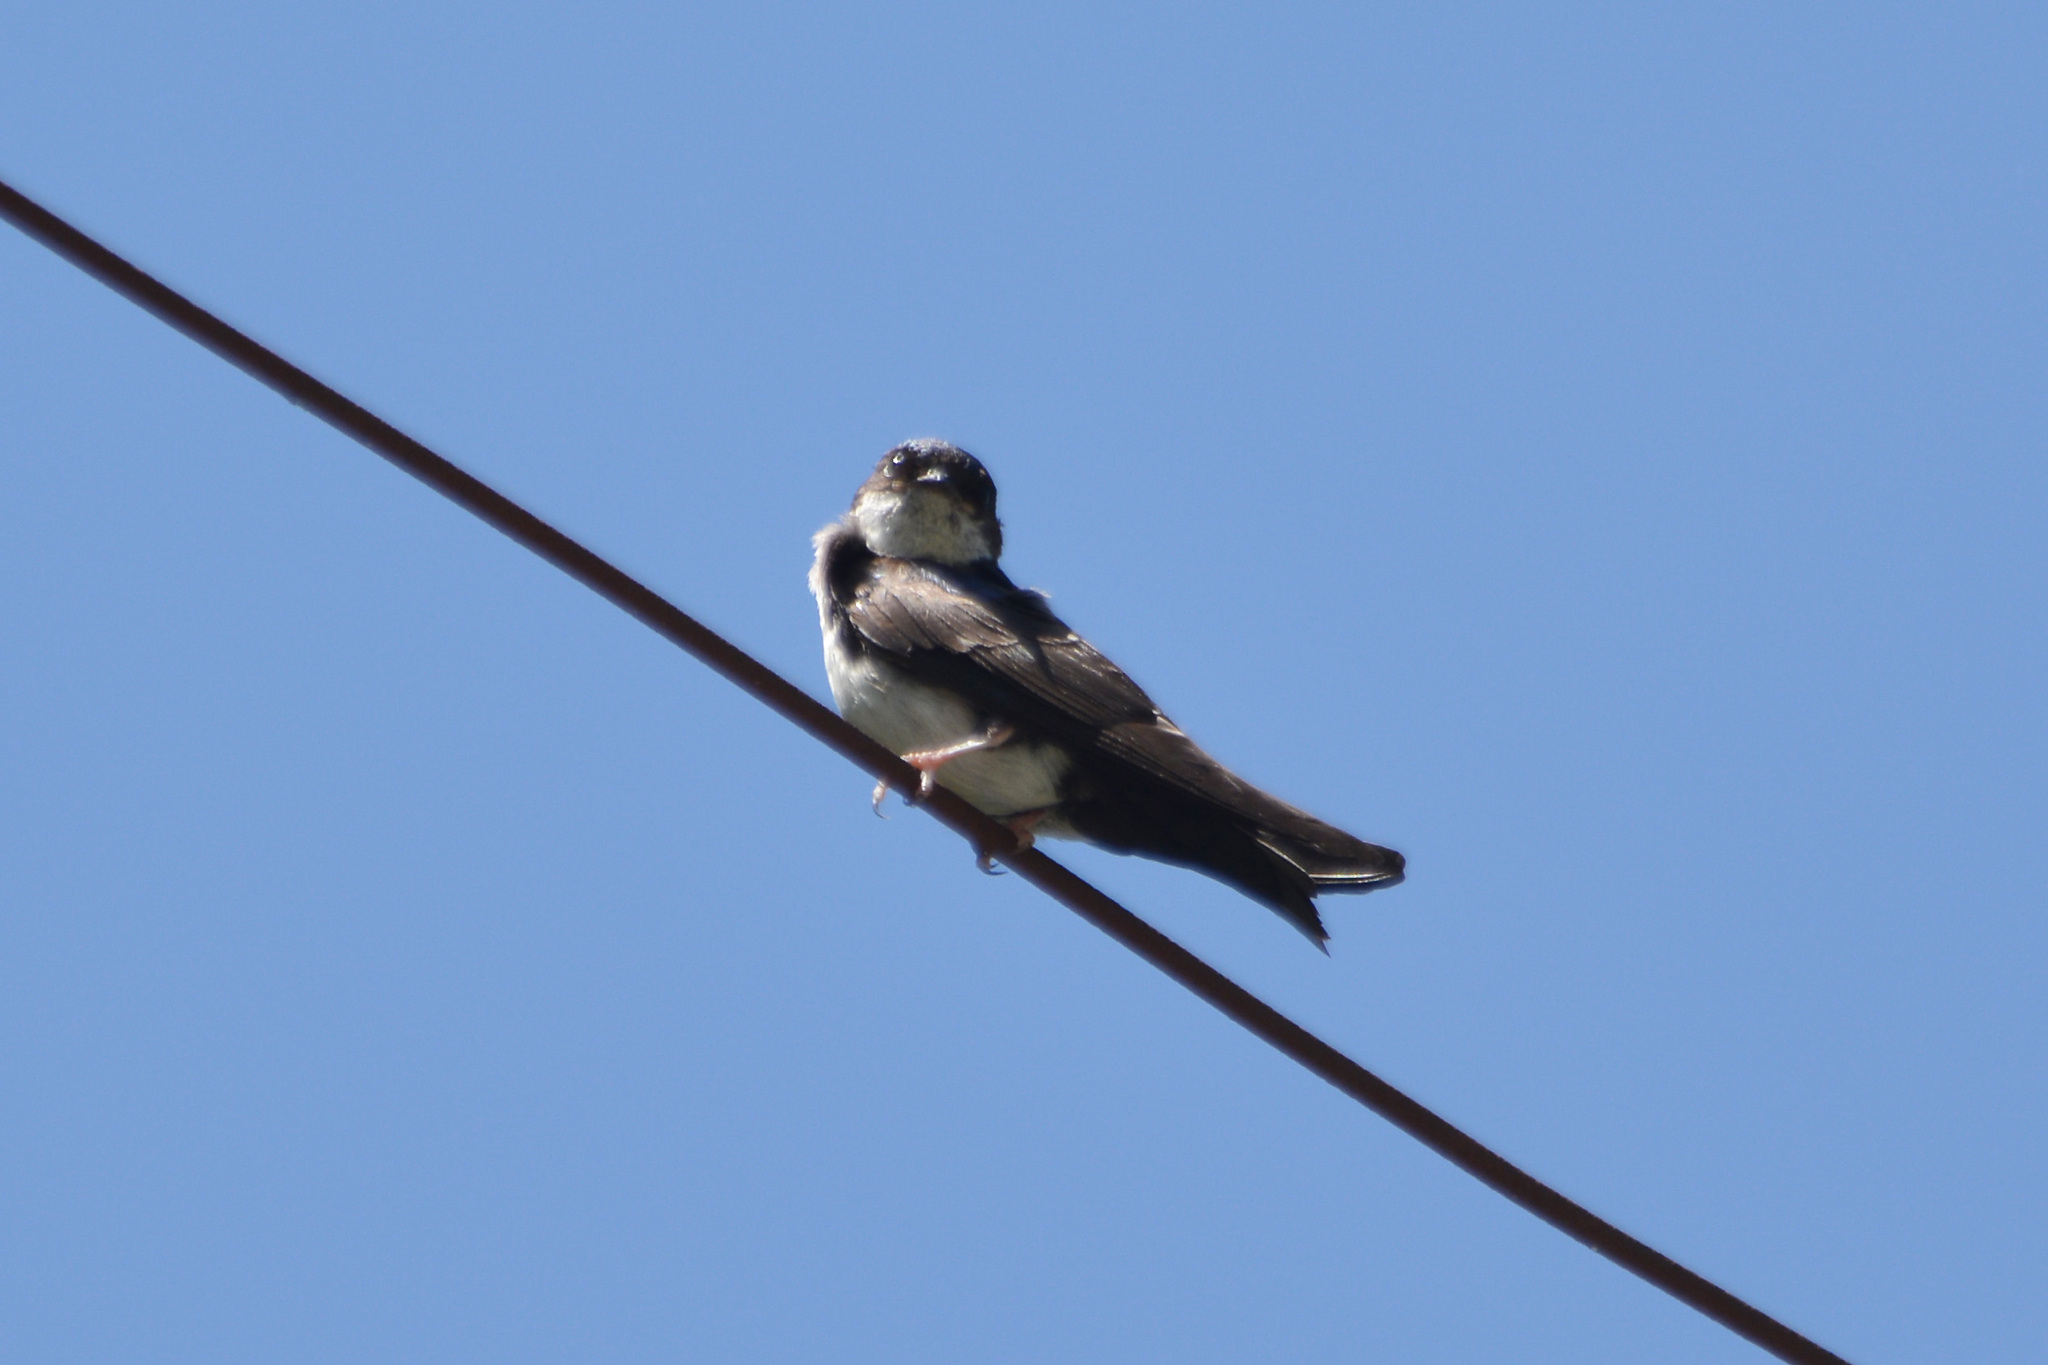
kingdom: Animalia
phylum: Chordata
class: Aves
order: Passeriformes
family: Hirundinidae
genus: Notiochelidon
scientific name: Notiochelidon cyanoleuca
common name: Blue-and-white swallow
